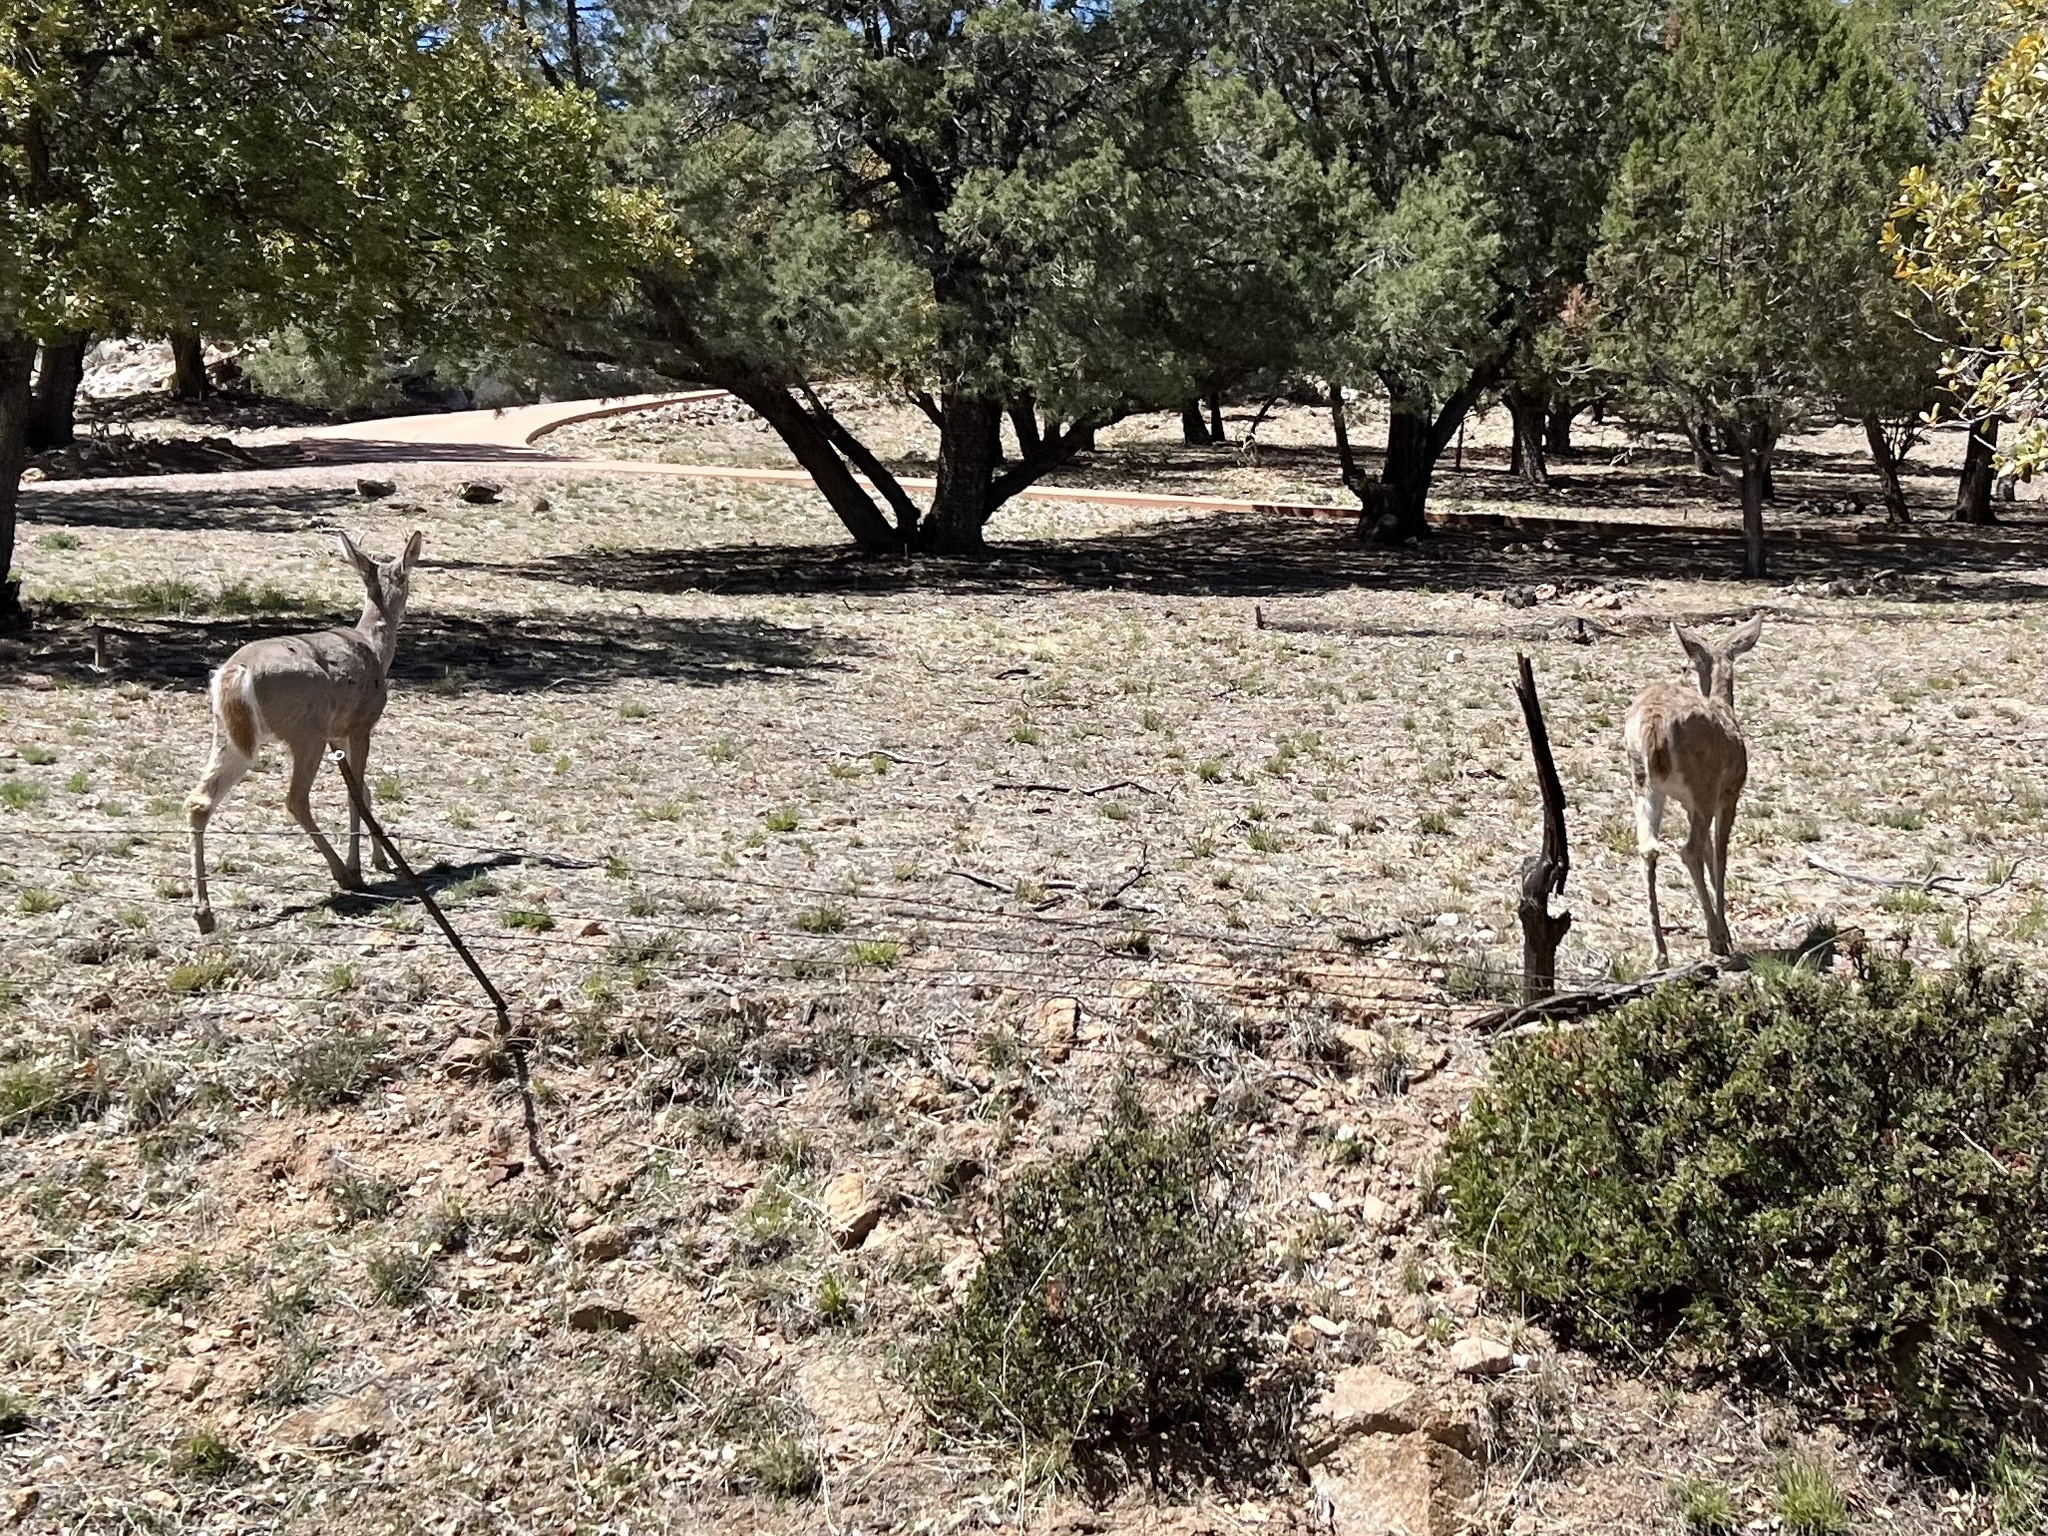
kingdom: Animalia
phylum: Chordata
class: Mammalia
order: Artiodactyla
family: Cervidae
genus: Odocoileus
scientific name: Odocoileus virginianus
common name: White-tailed deer
